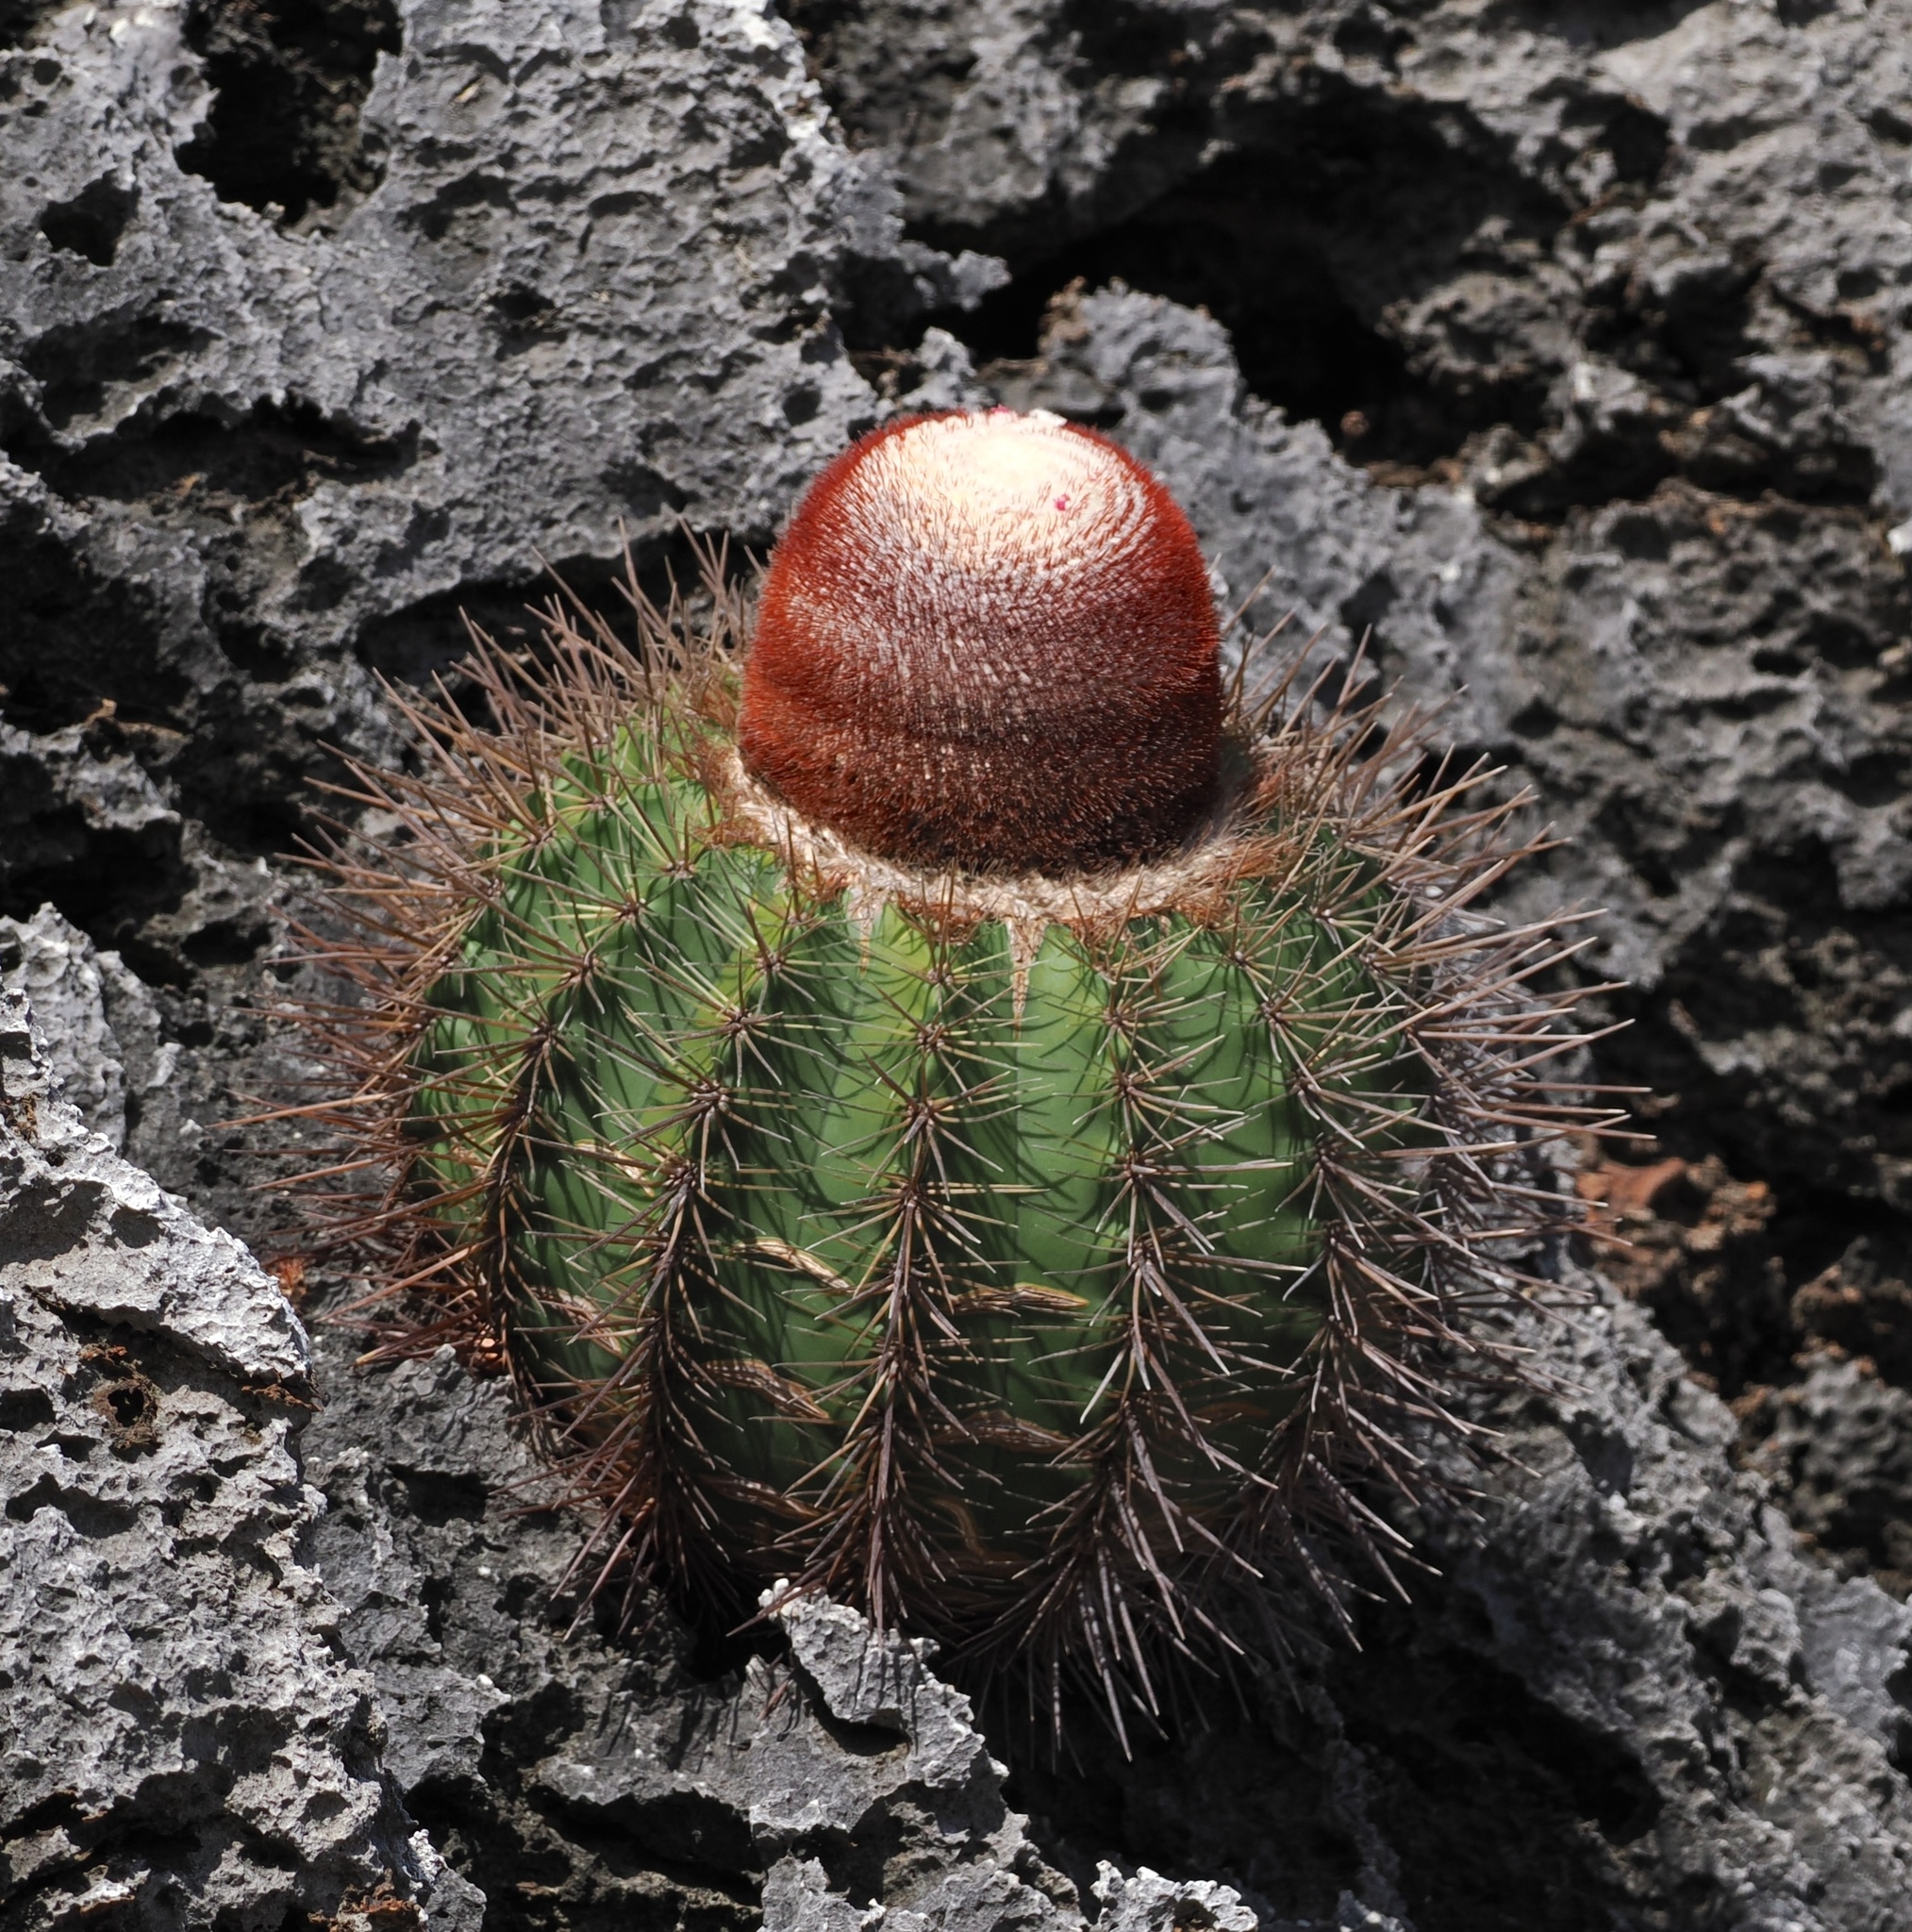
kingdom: Plantae
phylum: Tracheophyta
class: Magnoliopsida
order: Caryophyllales
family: Cactaceae
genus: Melocactus
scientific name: Melocactus intortus
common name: Barrel cactus
